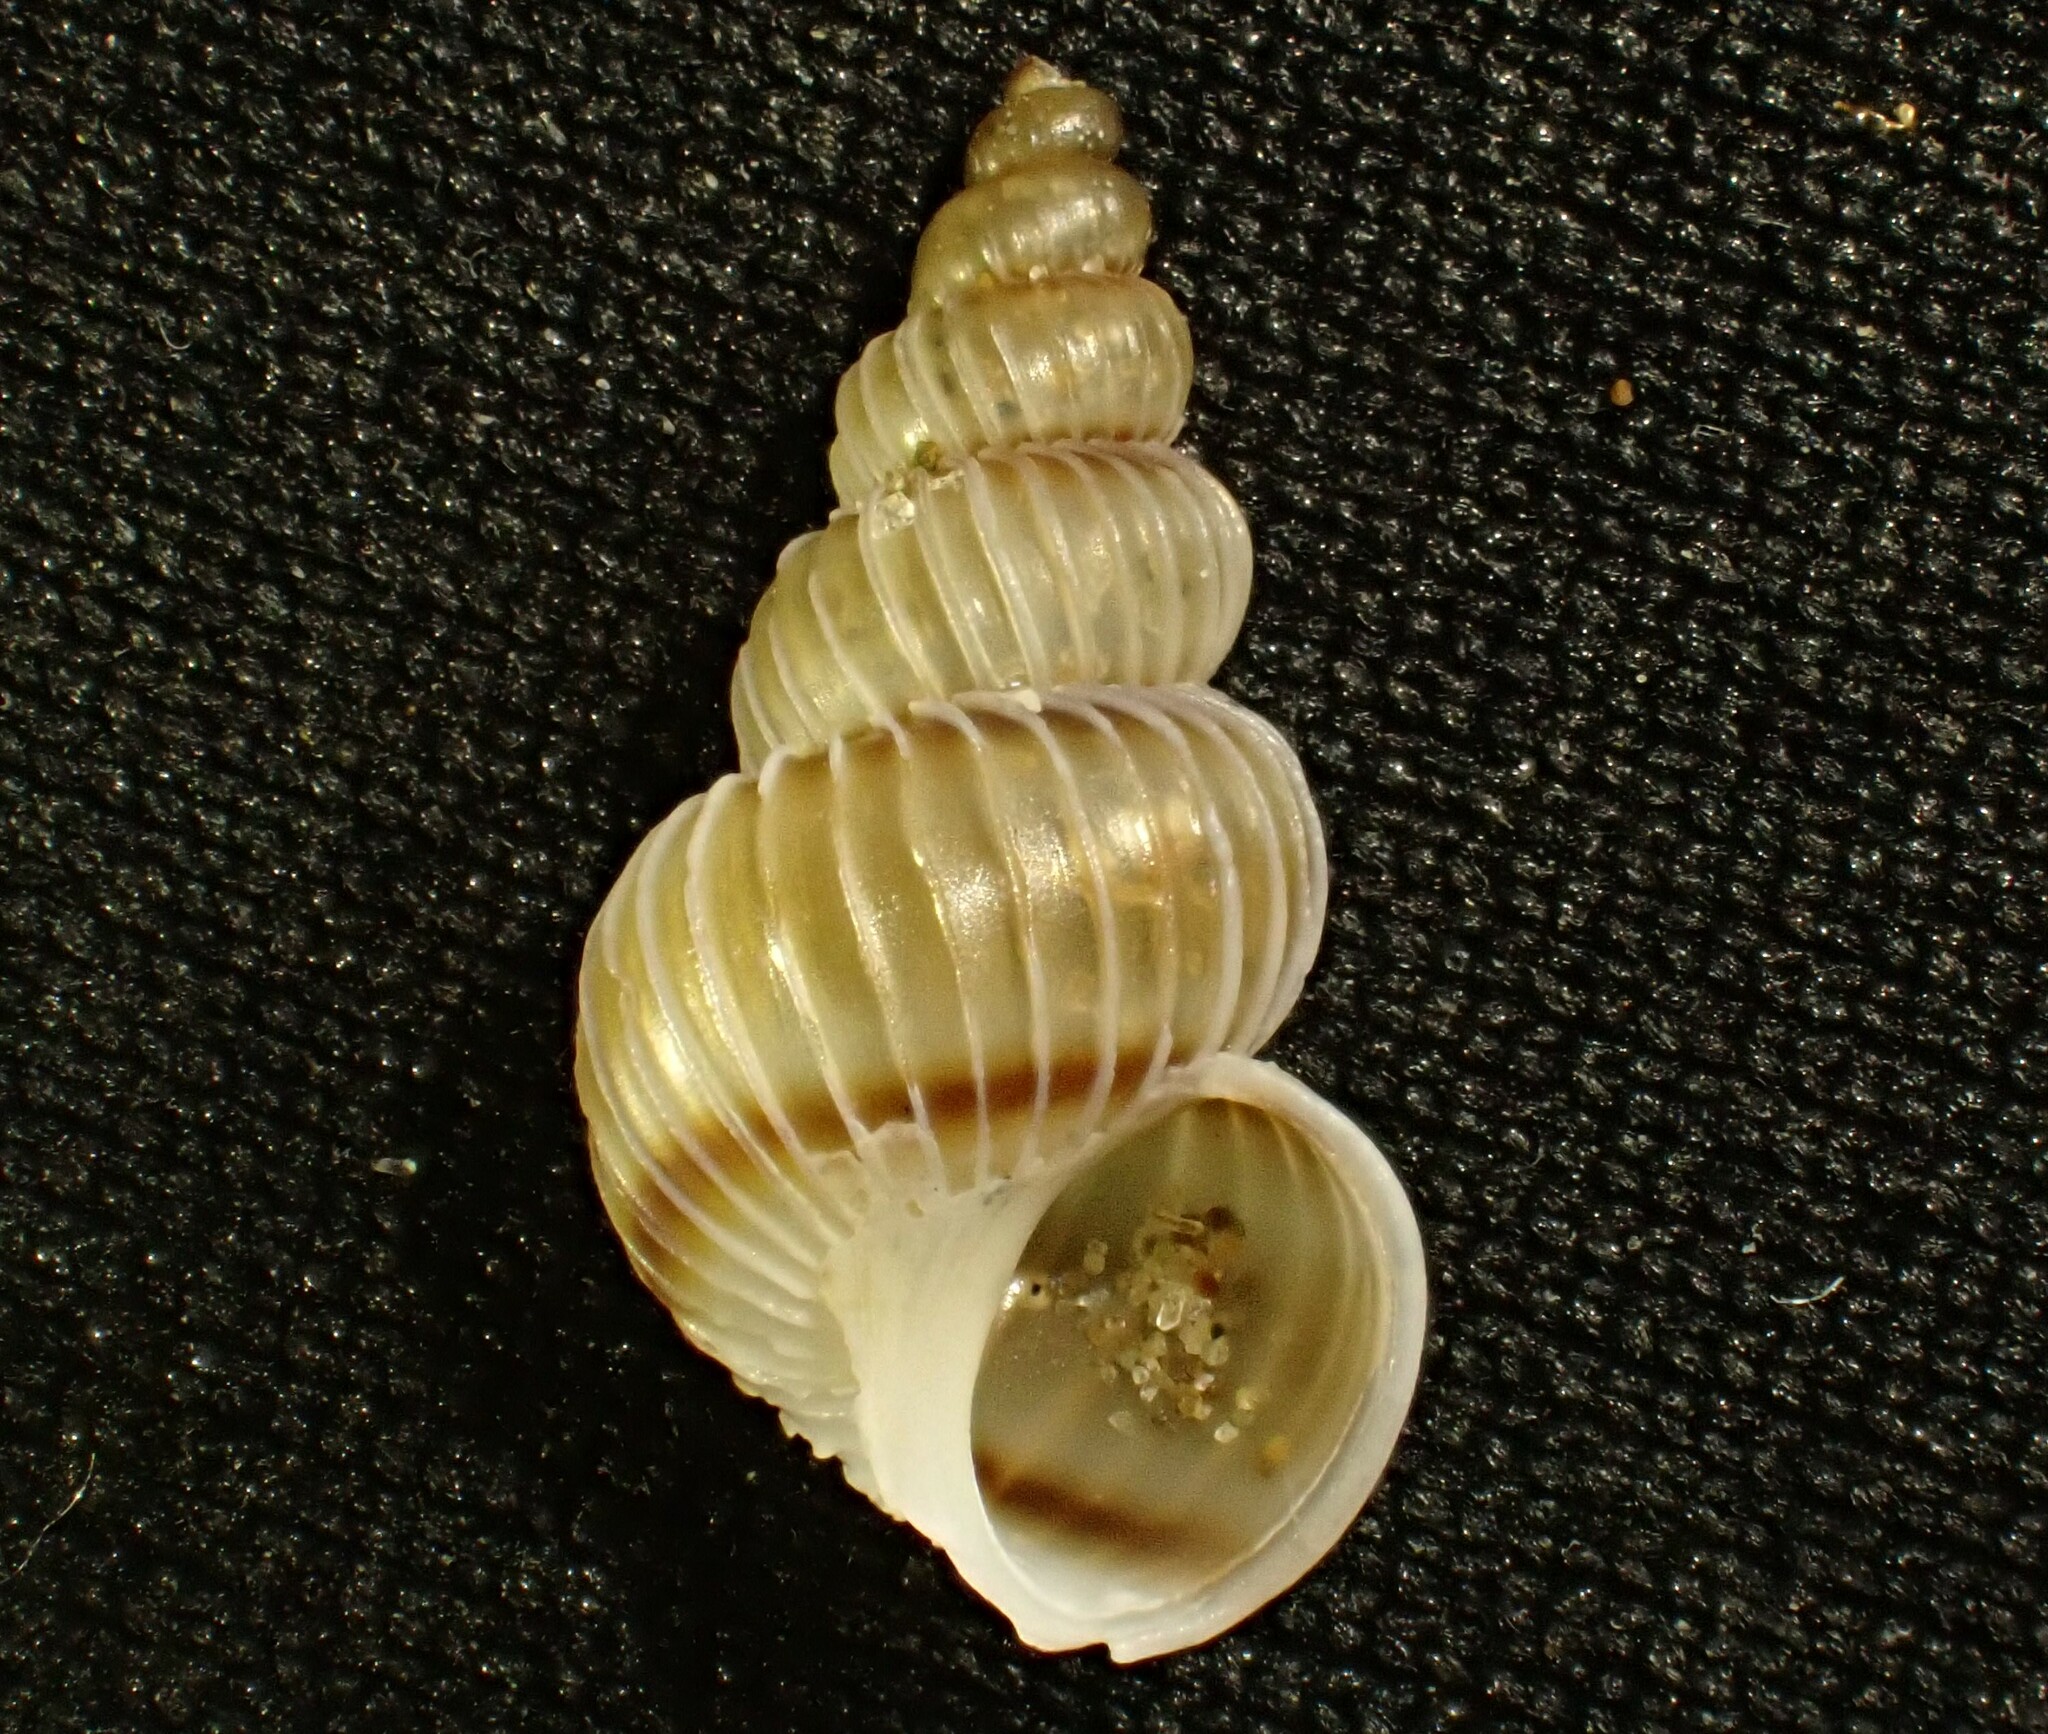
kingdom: Animalia
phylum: Mollusca
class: Gastropoda
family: Epitoniidae
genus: Epitonium
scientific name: Epitonium tenellum
